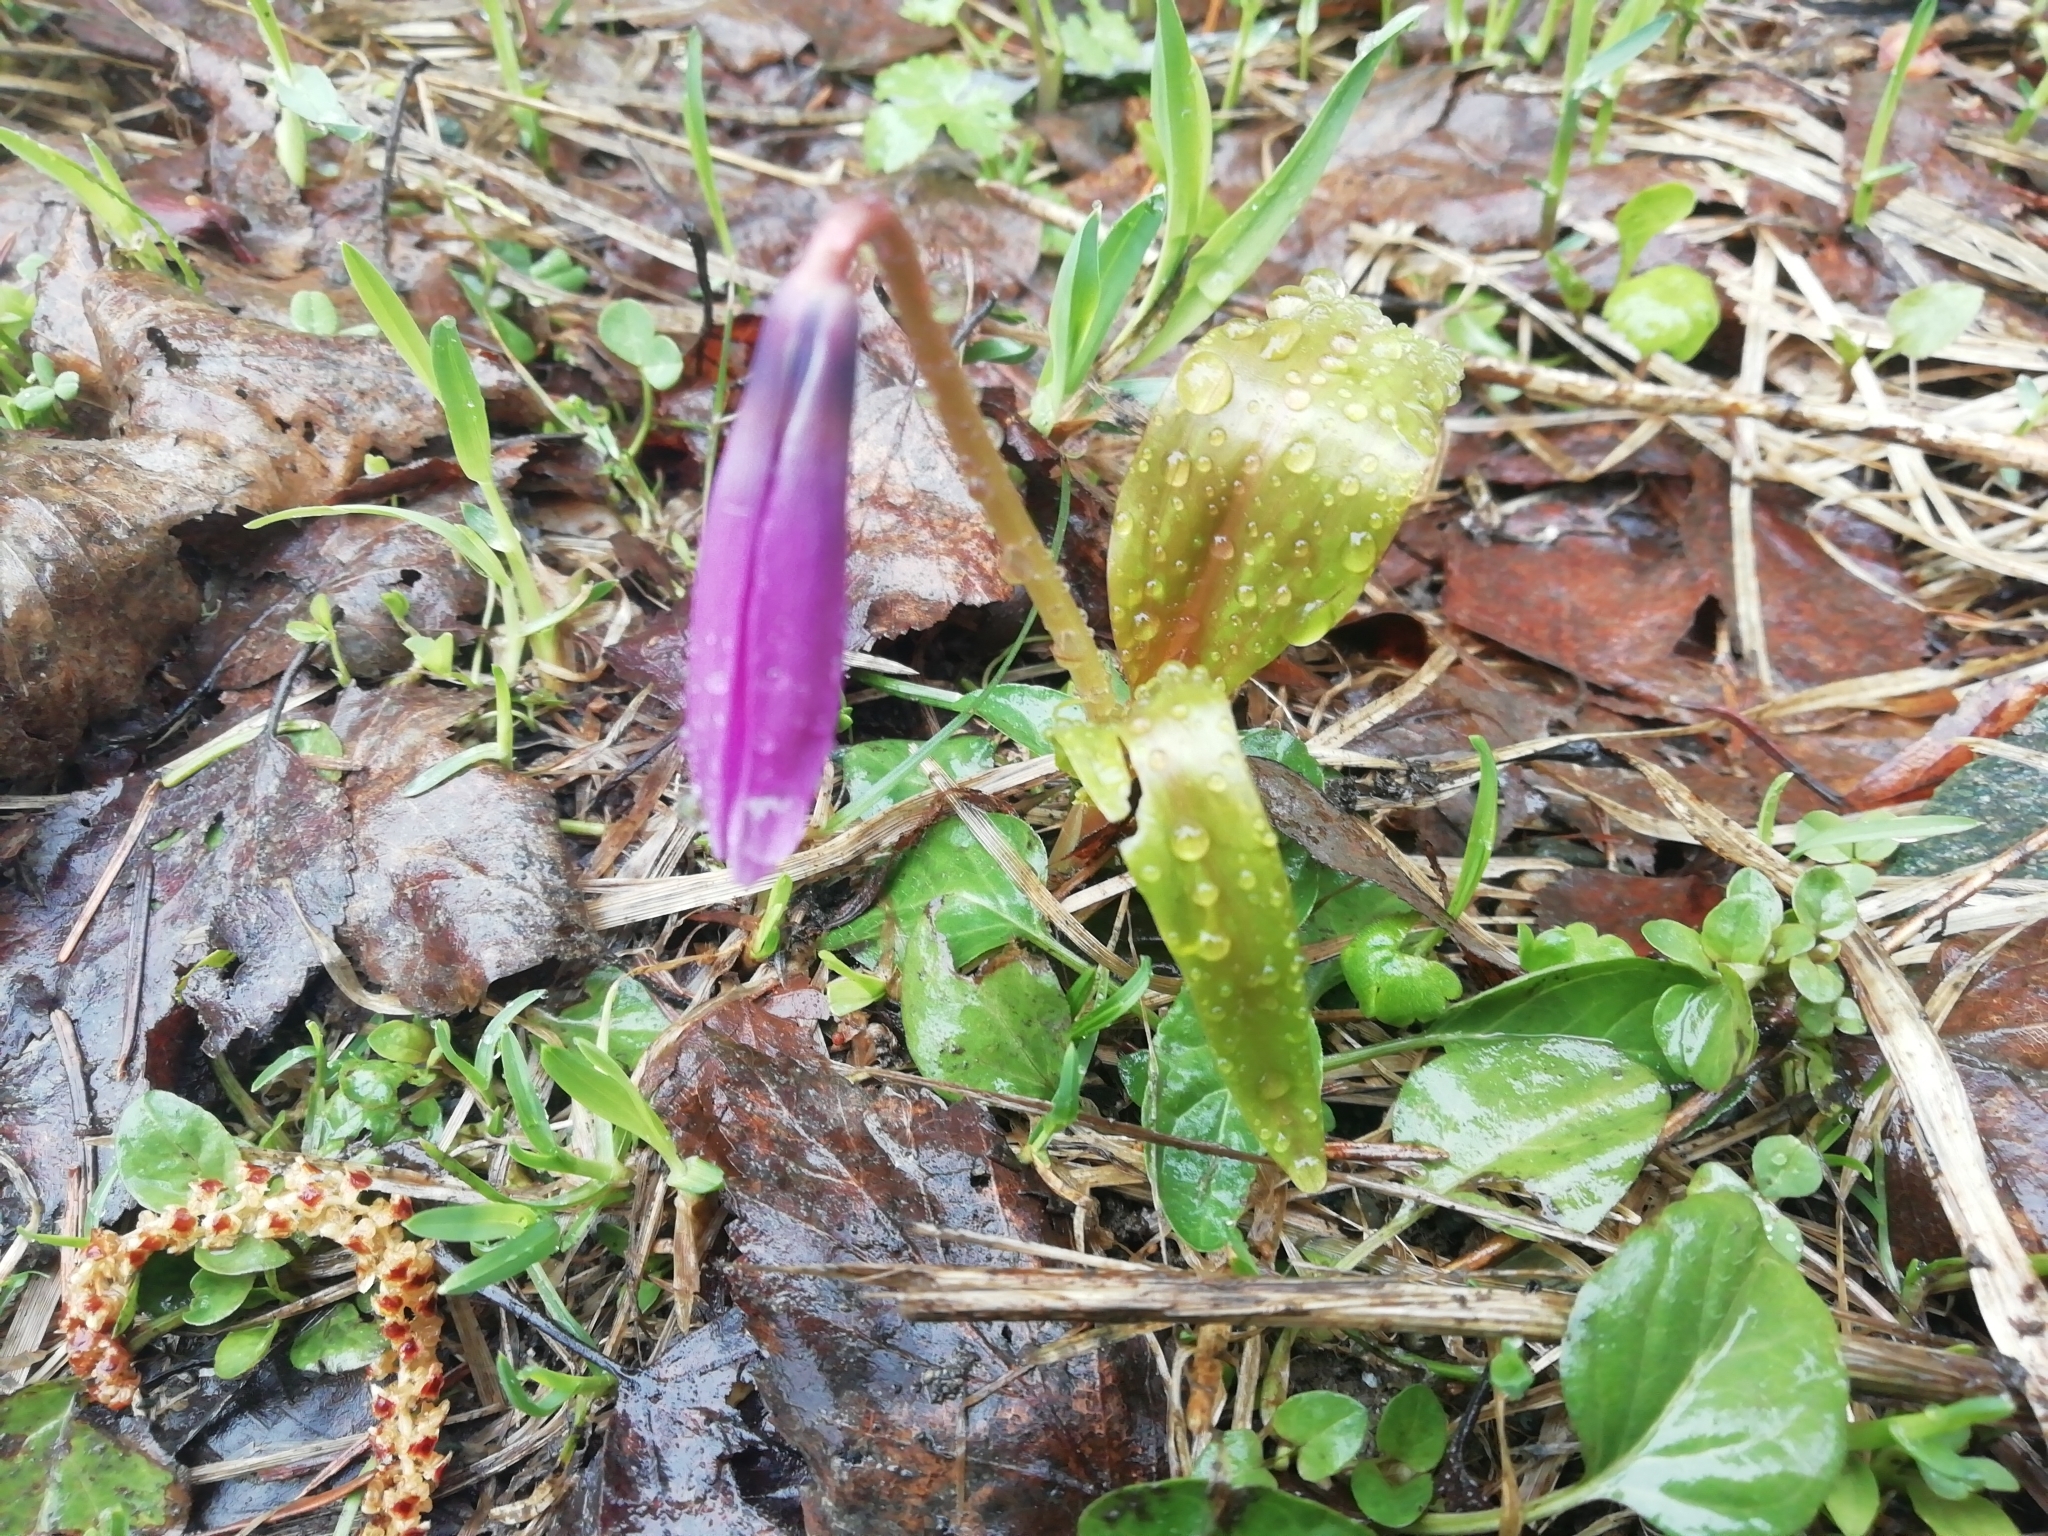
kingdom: Plantae
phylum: Tracheophyta
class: Liliopsida
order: Liliales
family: Liliaceae
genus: Erythronium
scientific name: Erythronium sibiricum
